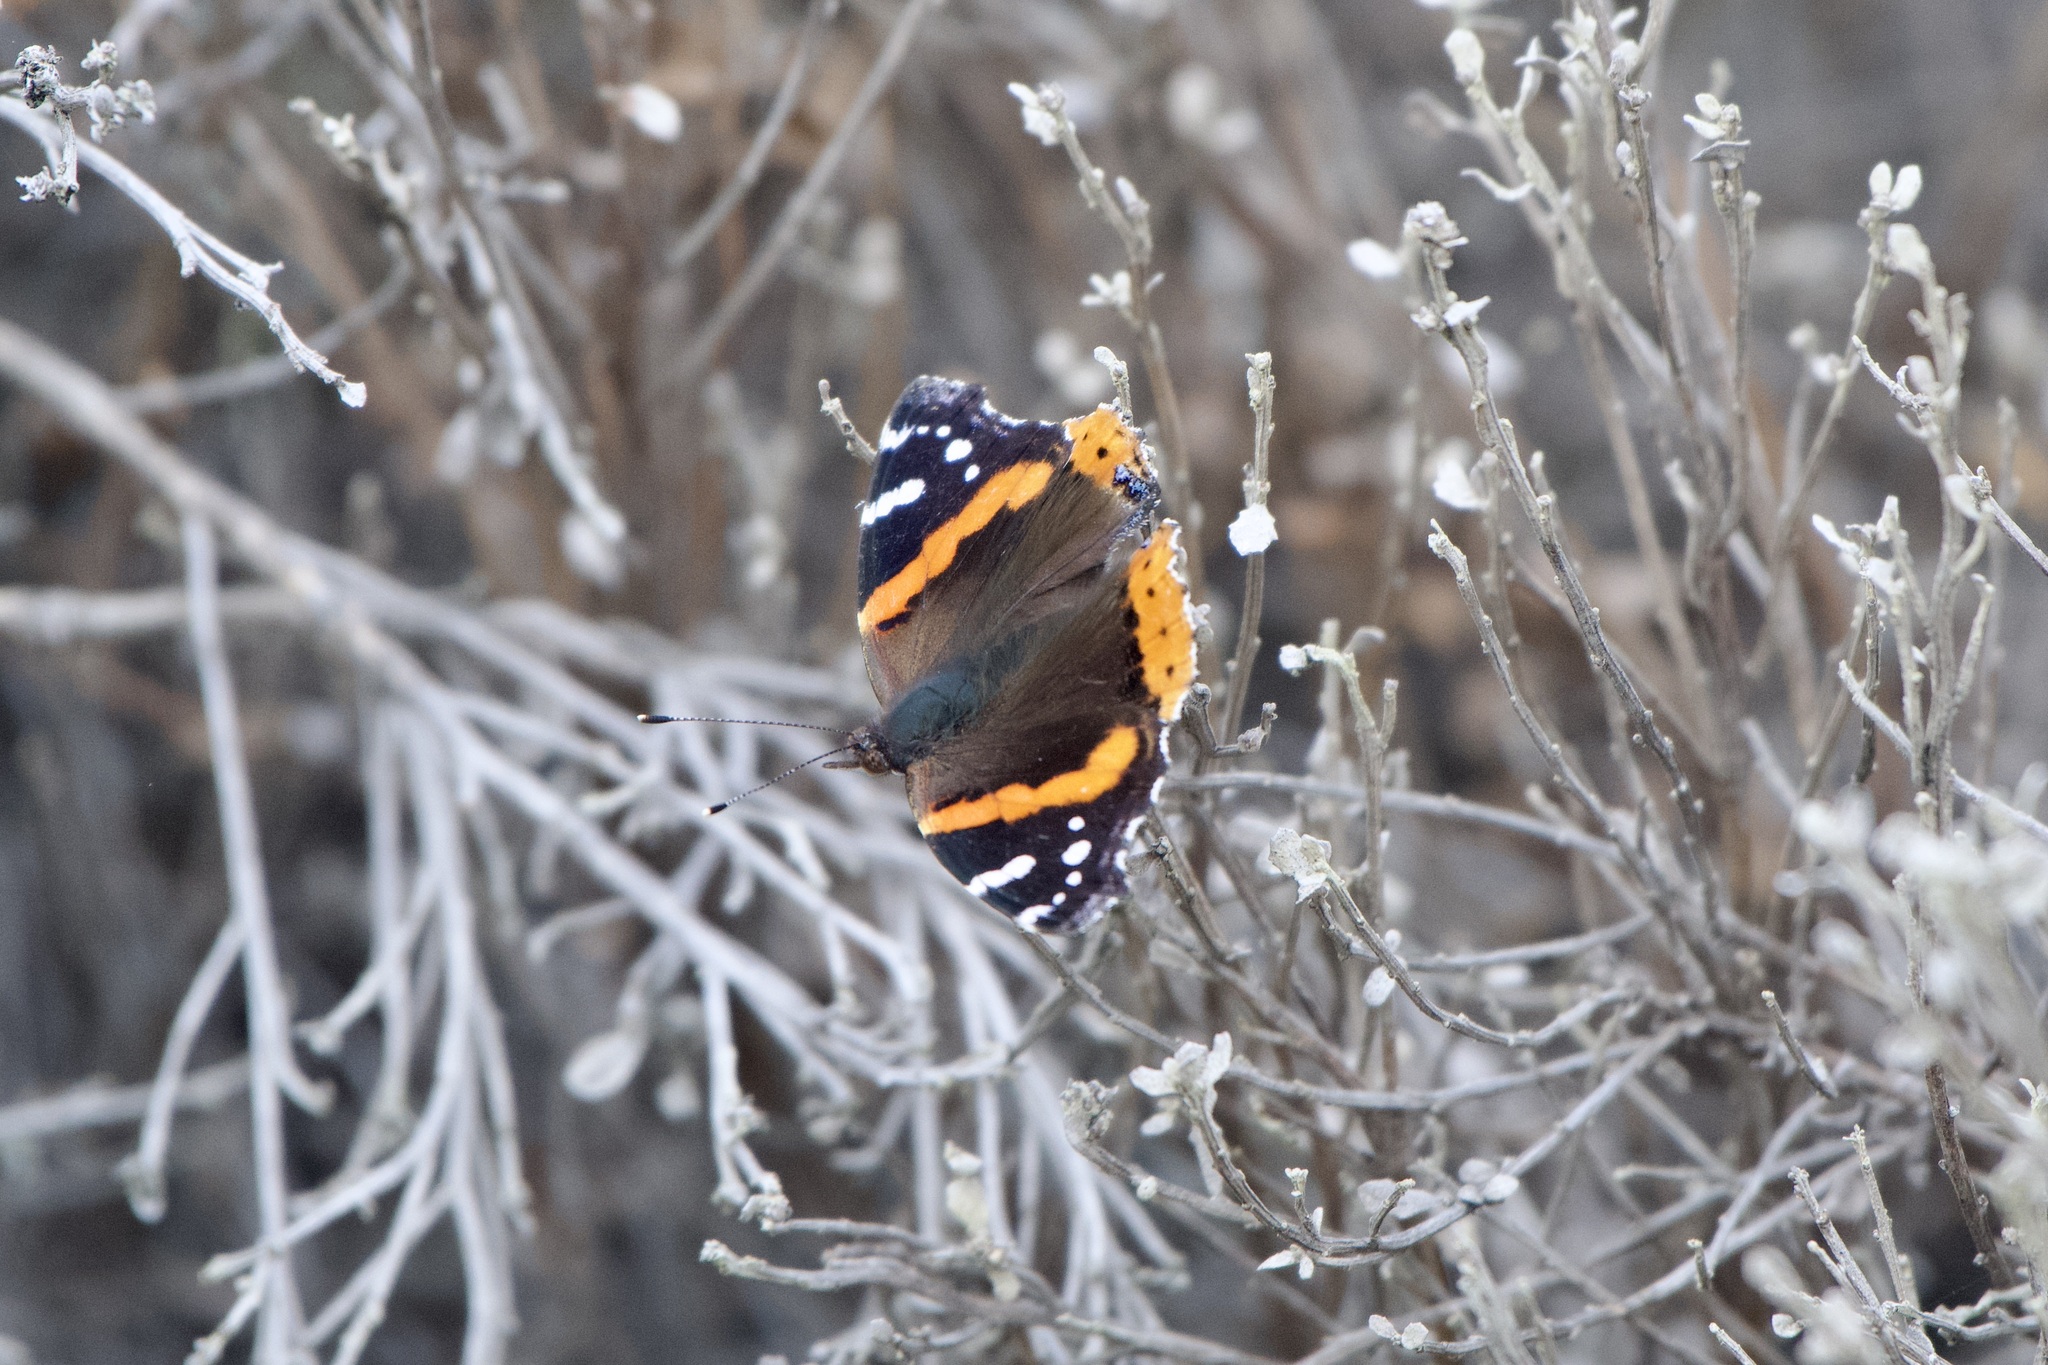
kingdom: Animalia
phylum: Arthropoda
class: Insecta
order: Lepidoptera
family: Nymphalidae
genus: Vanessa
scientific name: Vanessa atalanta
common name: Red admiral
